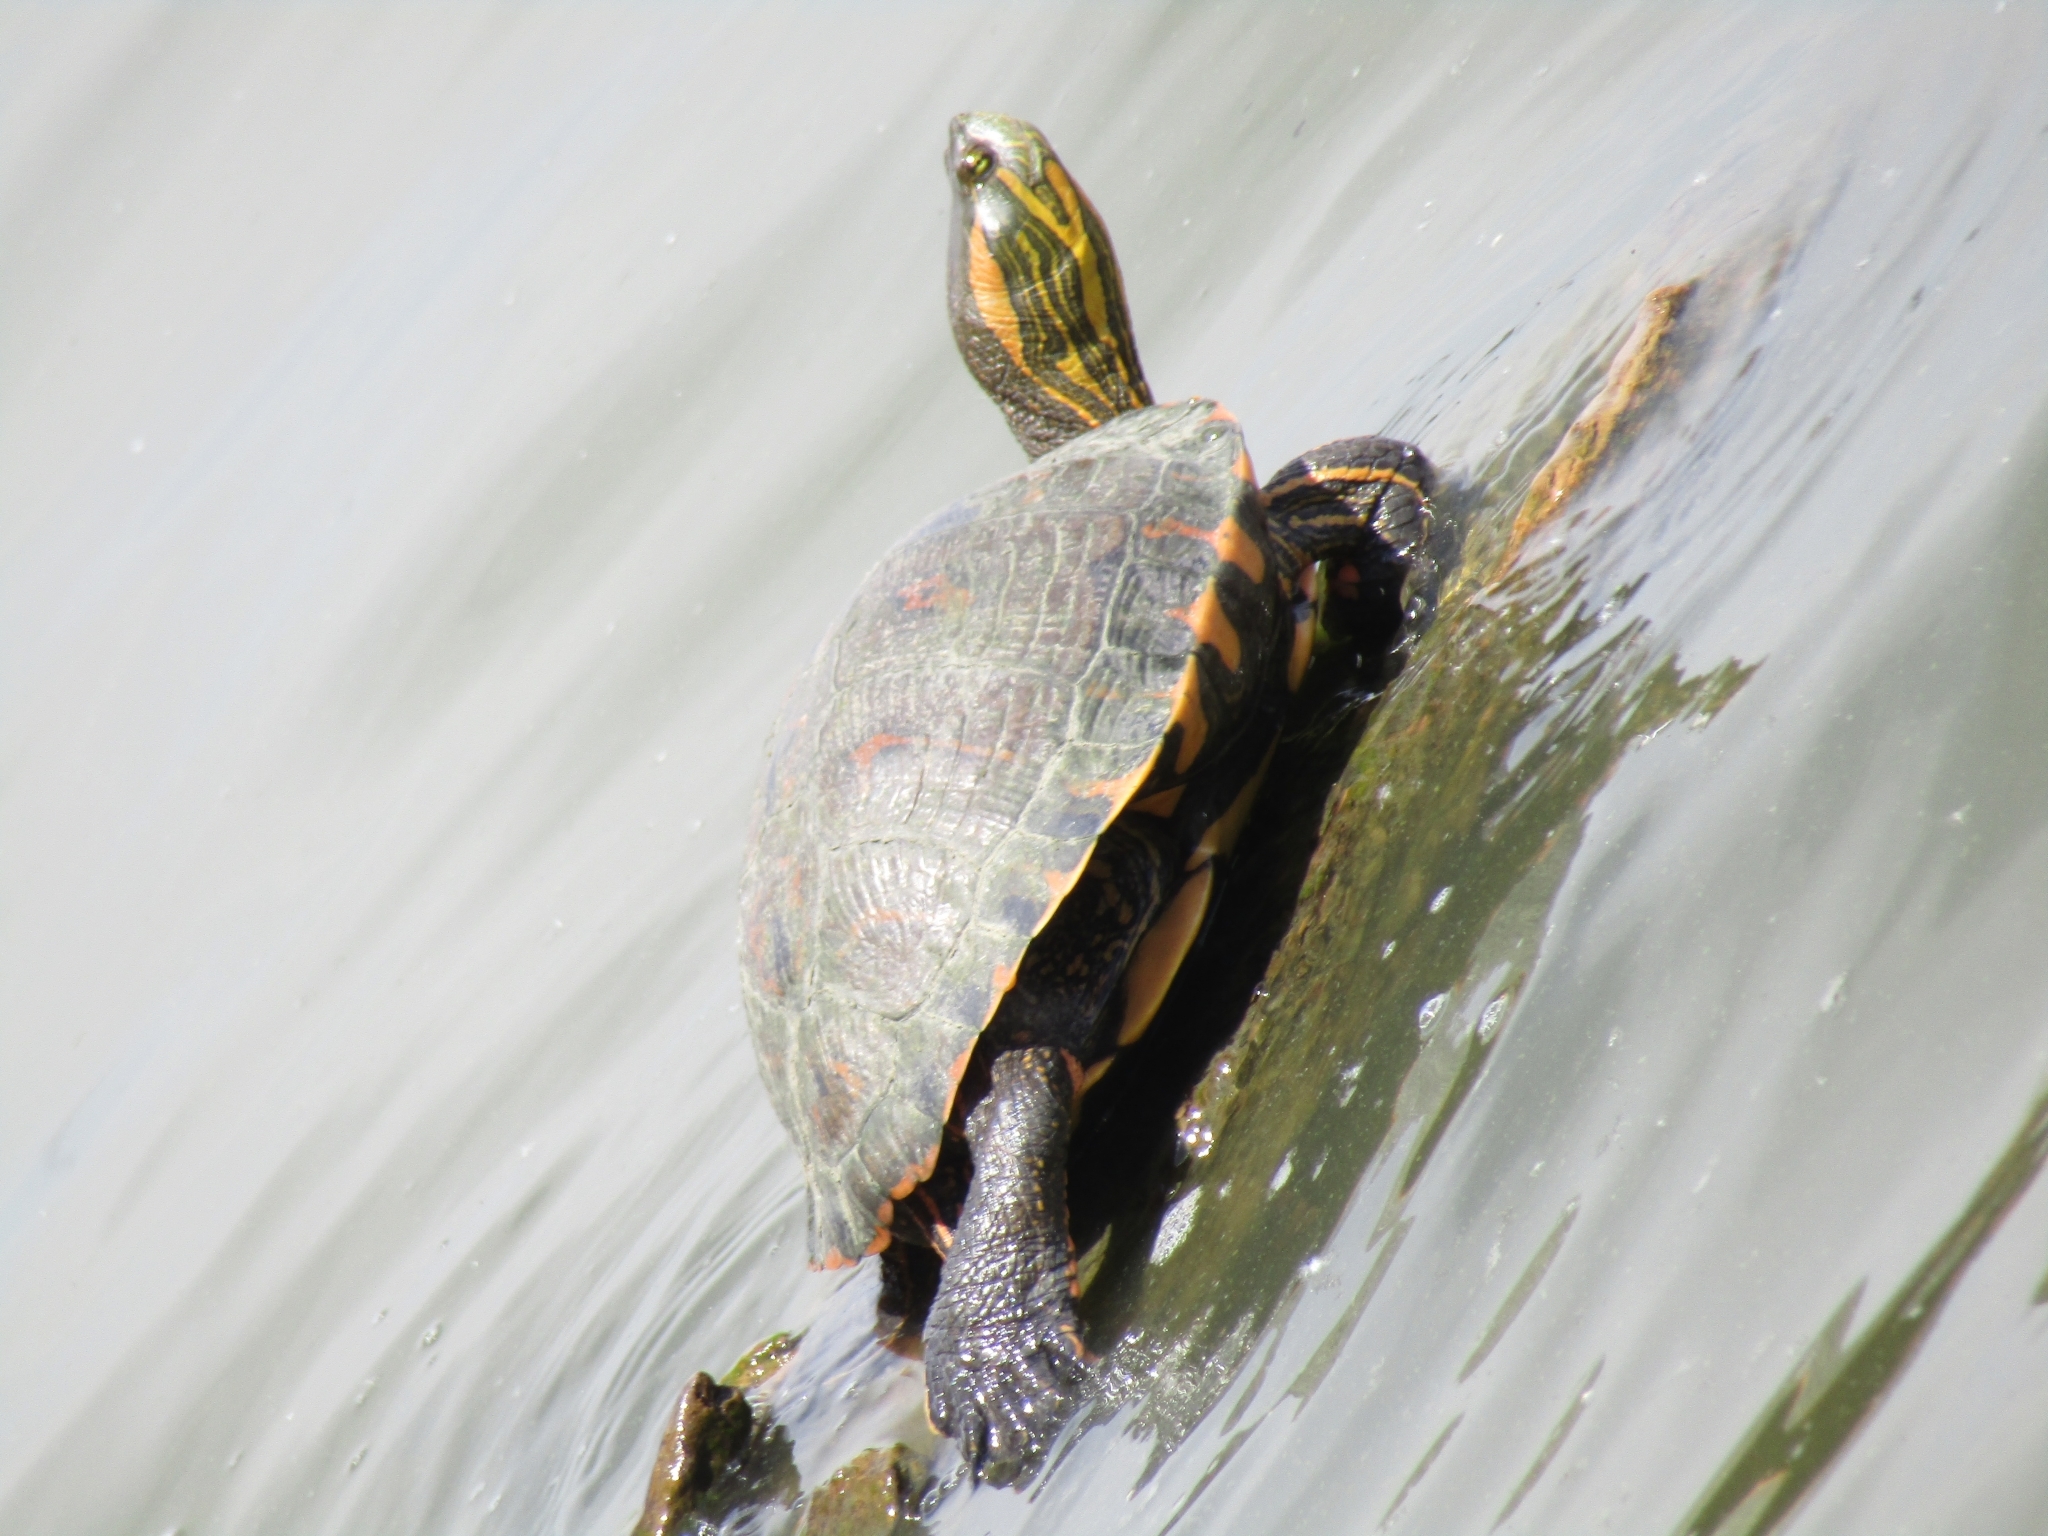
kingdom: Animalia
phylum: Chordata
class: Testudines
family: Emydidae
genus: Trachemys
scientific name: Trachemys dorbigni
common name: Black-bellied slider
